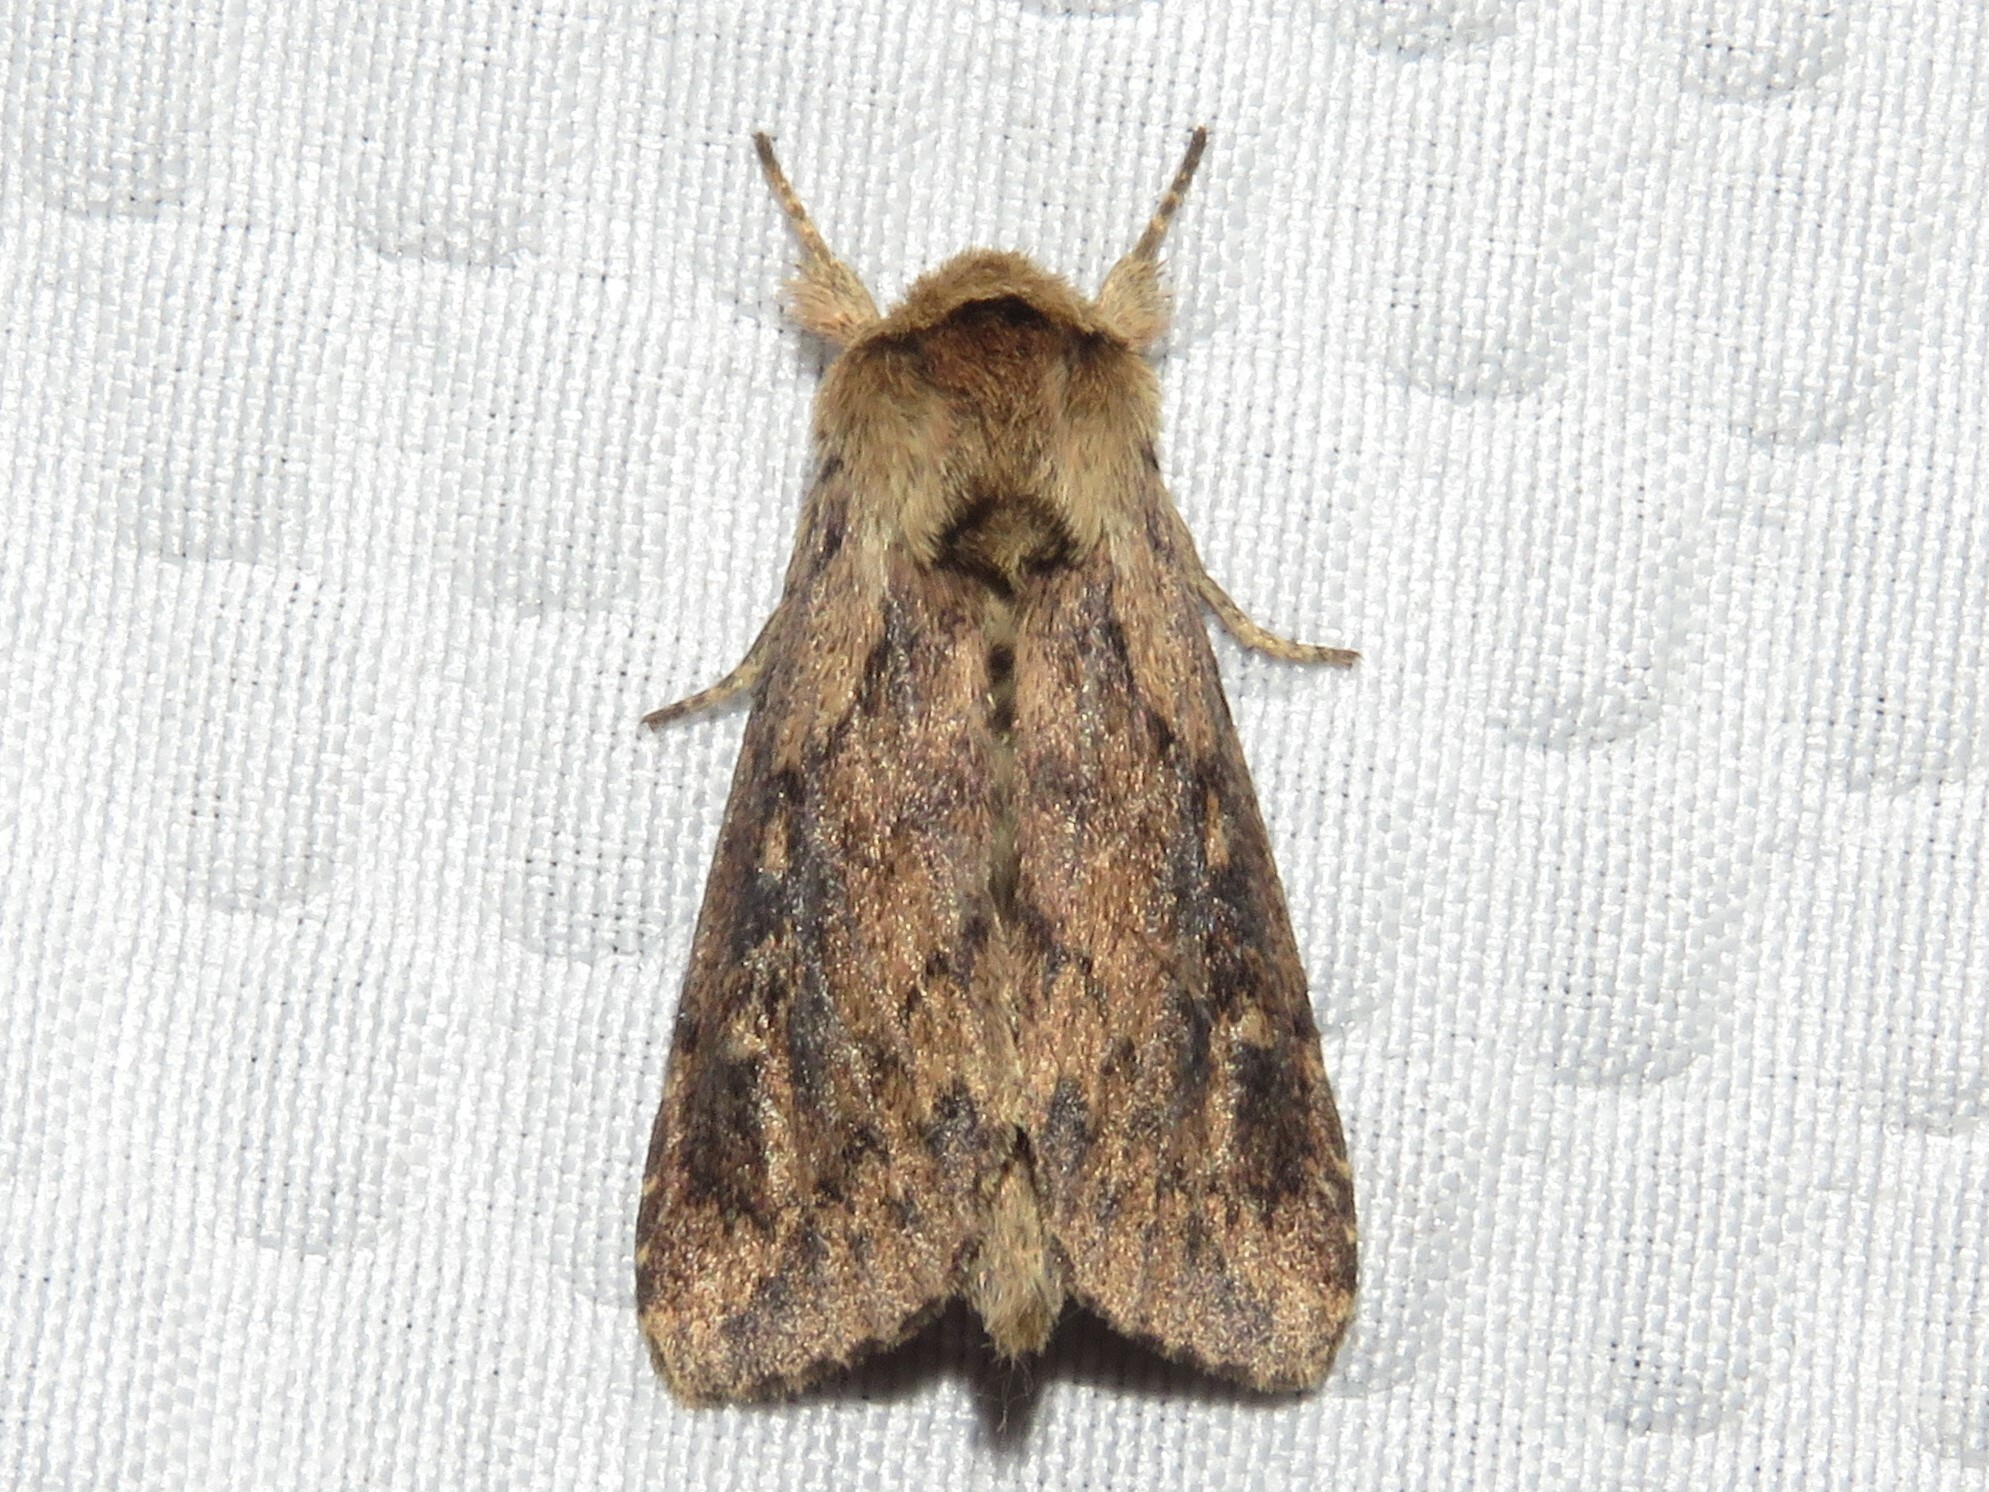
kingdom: Animalia
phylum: Arthropoda
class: Insecta
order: Lepidoptera
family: Noctuidae
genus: Bellura
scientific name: Bellura vulnifica
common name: Black-tailed diver moth
